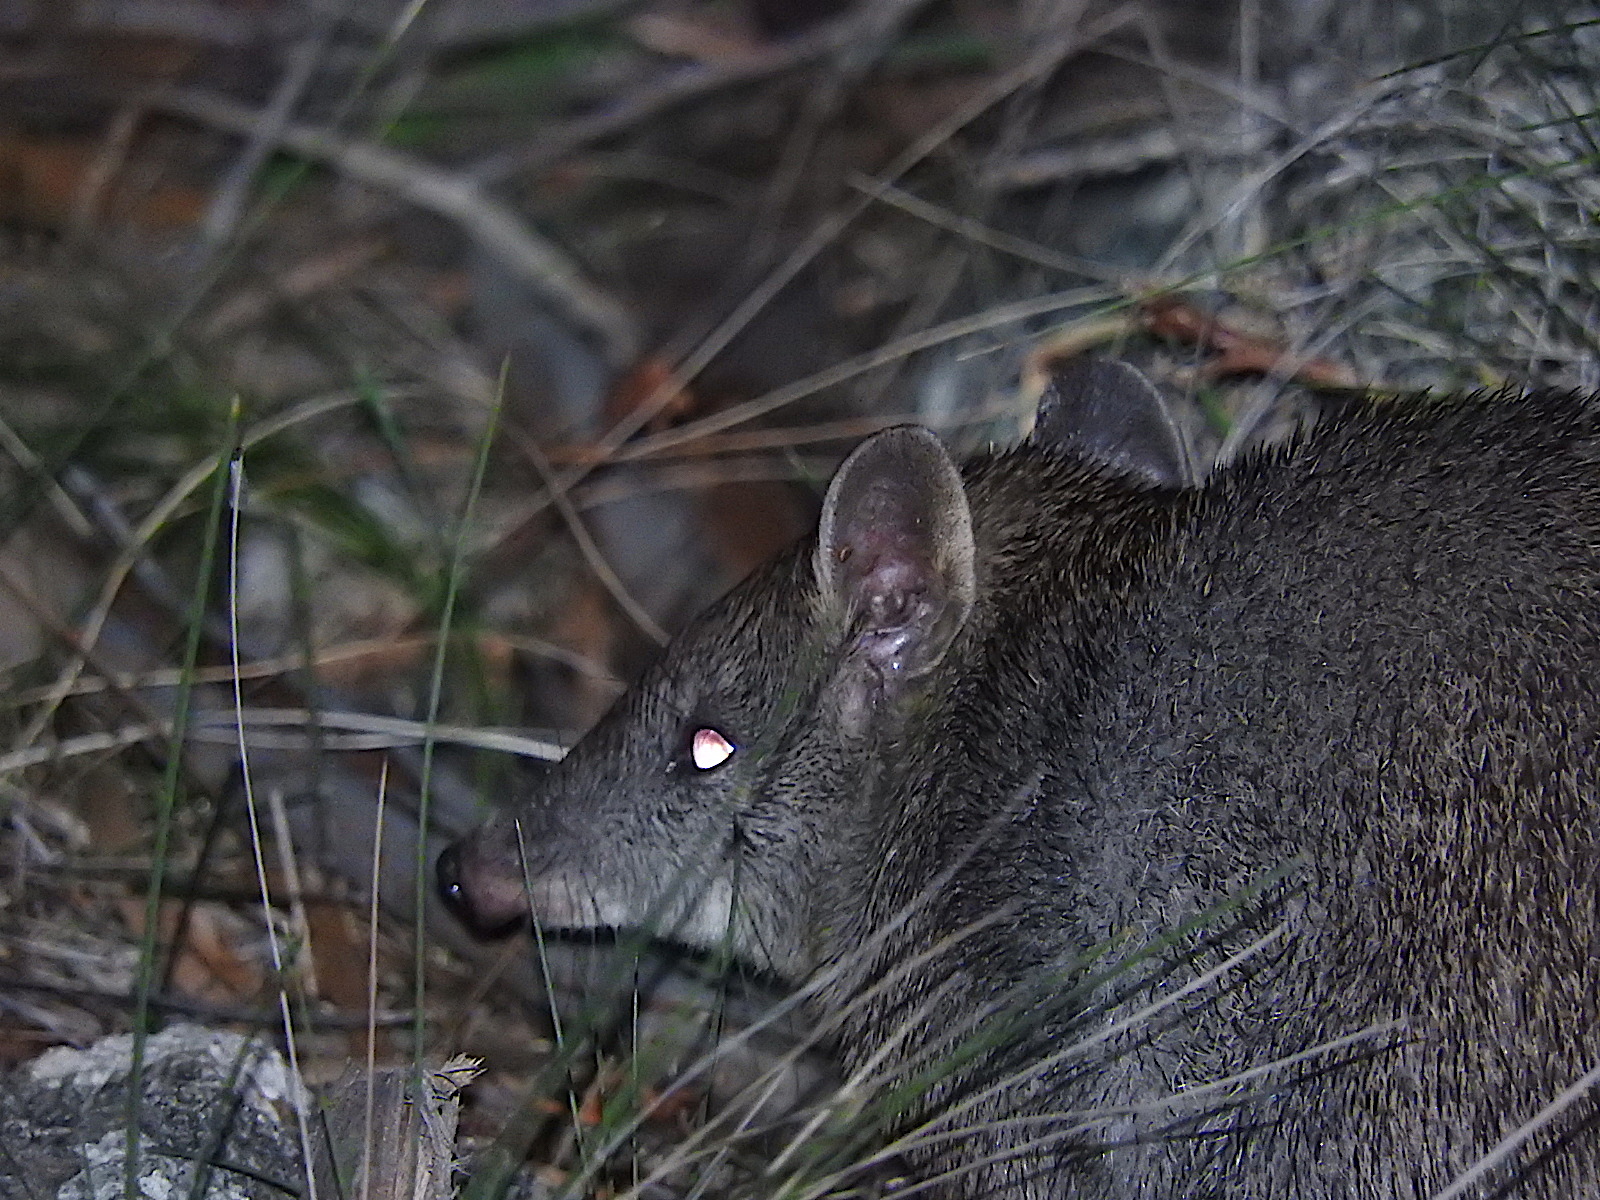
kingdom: Animalia
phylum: Chordata
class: Mammalia
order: Peramelemorphia
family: Peramelidae
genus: Isoodon
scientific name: Isoodon obesulus
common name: Southern brown bandicoot
